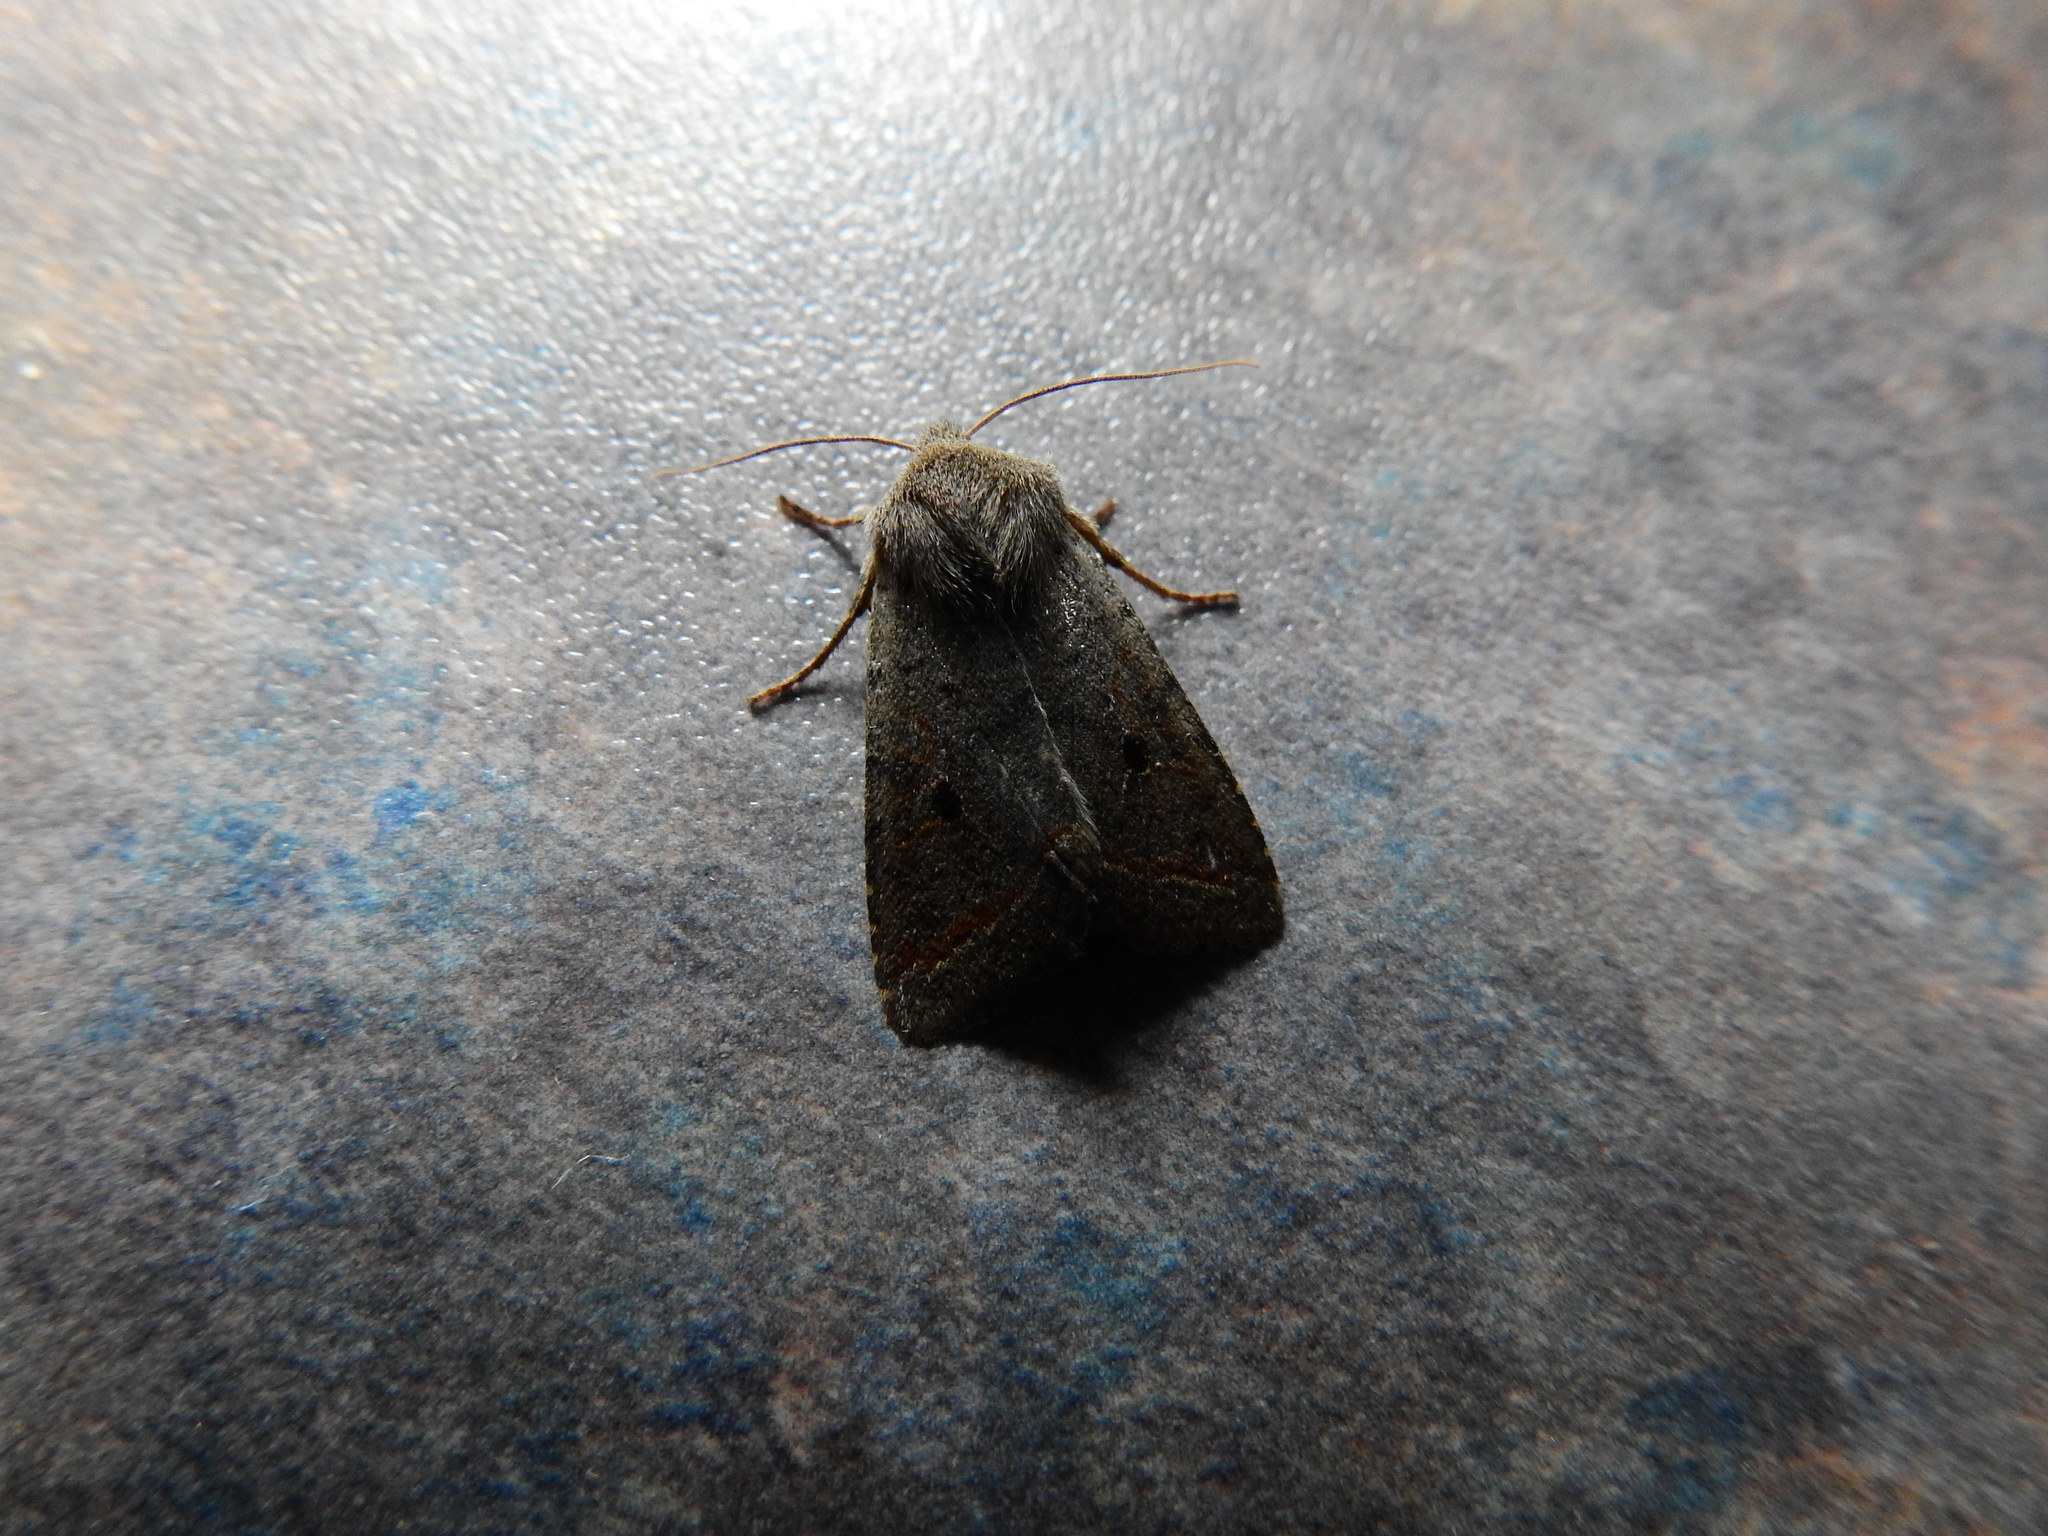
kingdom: Animalia
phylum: Arthropoda
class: Insecta
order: Lepidoptera
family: Noctuidae
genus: Agrochola
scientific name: Agrochola lota
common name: Red-line quaker
